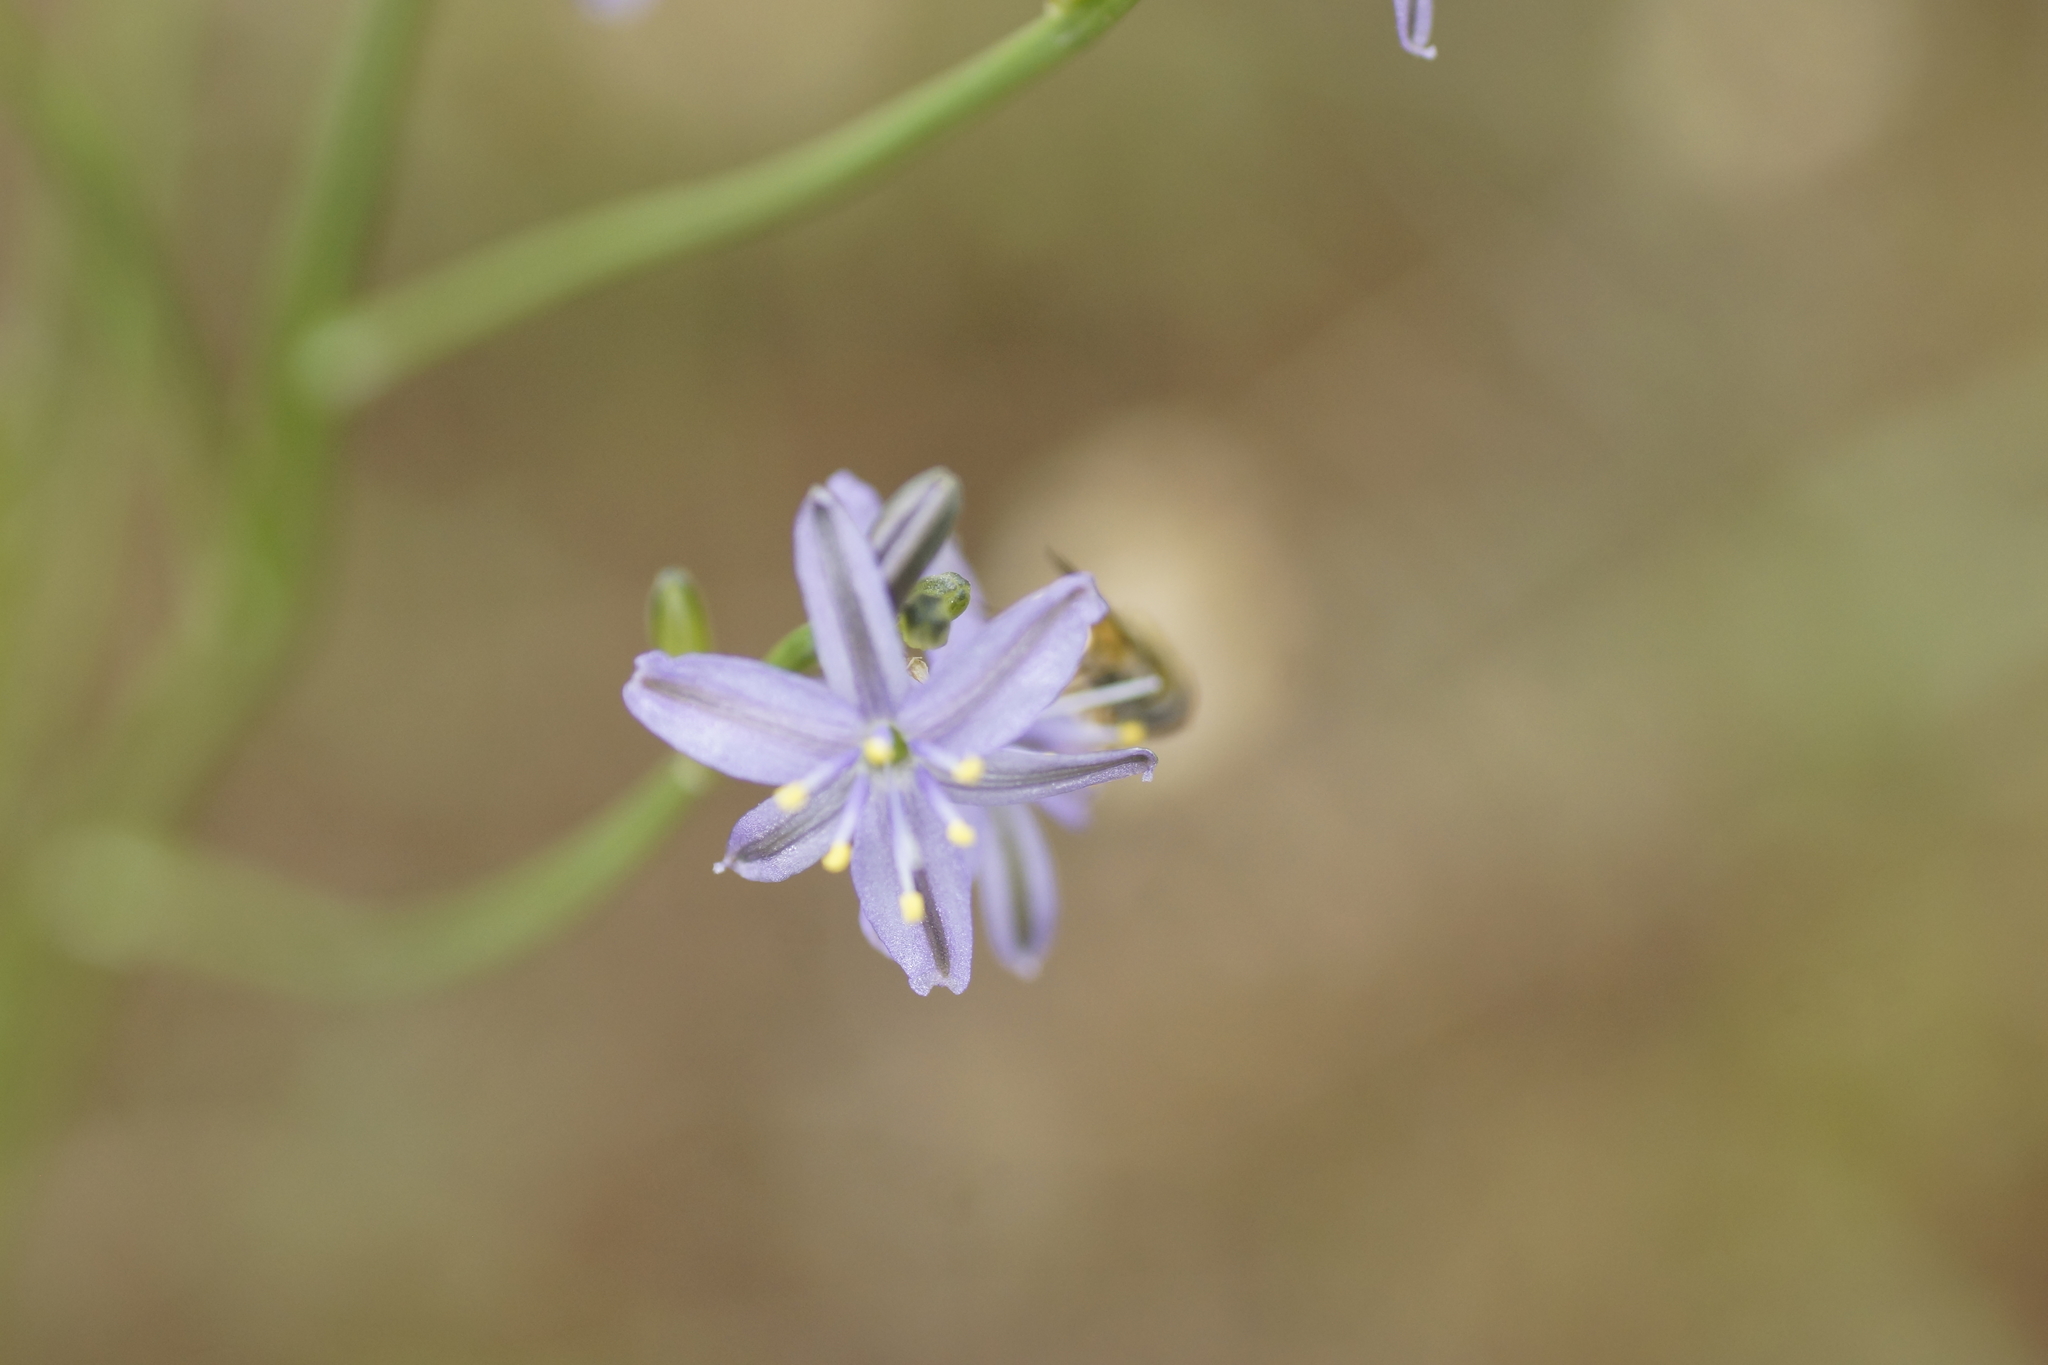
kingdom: Plantae
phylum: Tracheophyta
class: Liliopsida
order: Asparagales
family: Asphodelaceae
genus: Caesia
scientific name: Caesia calliantha
